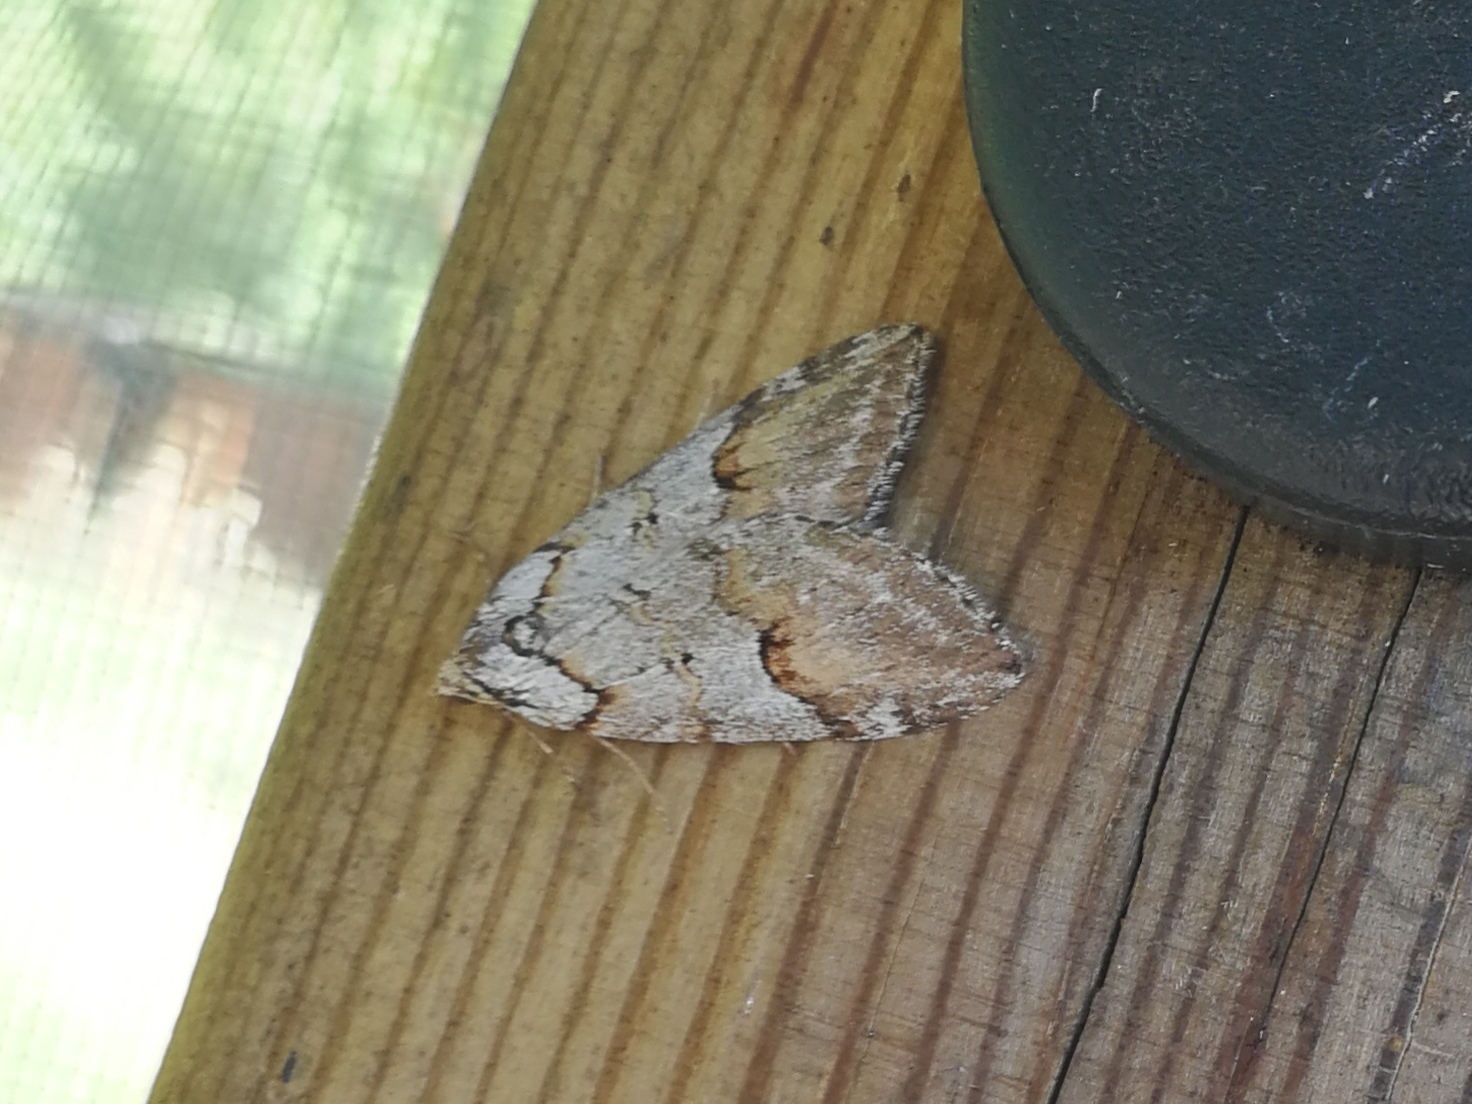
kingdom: Animalia
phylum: Arthropoda
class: Insecta
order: Lepidoptera
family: Geometridae
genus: Chesias
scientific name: Chesias rufata
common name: Broom-tip
